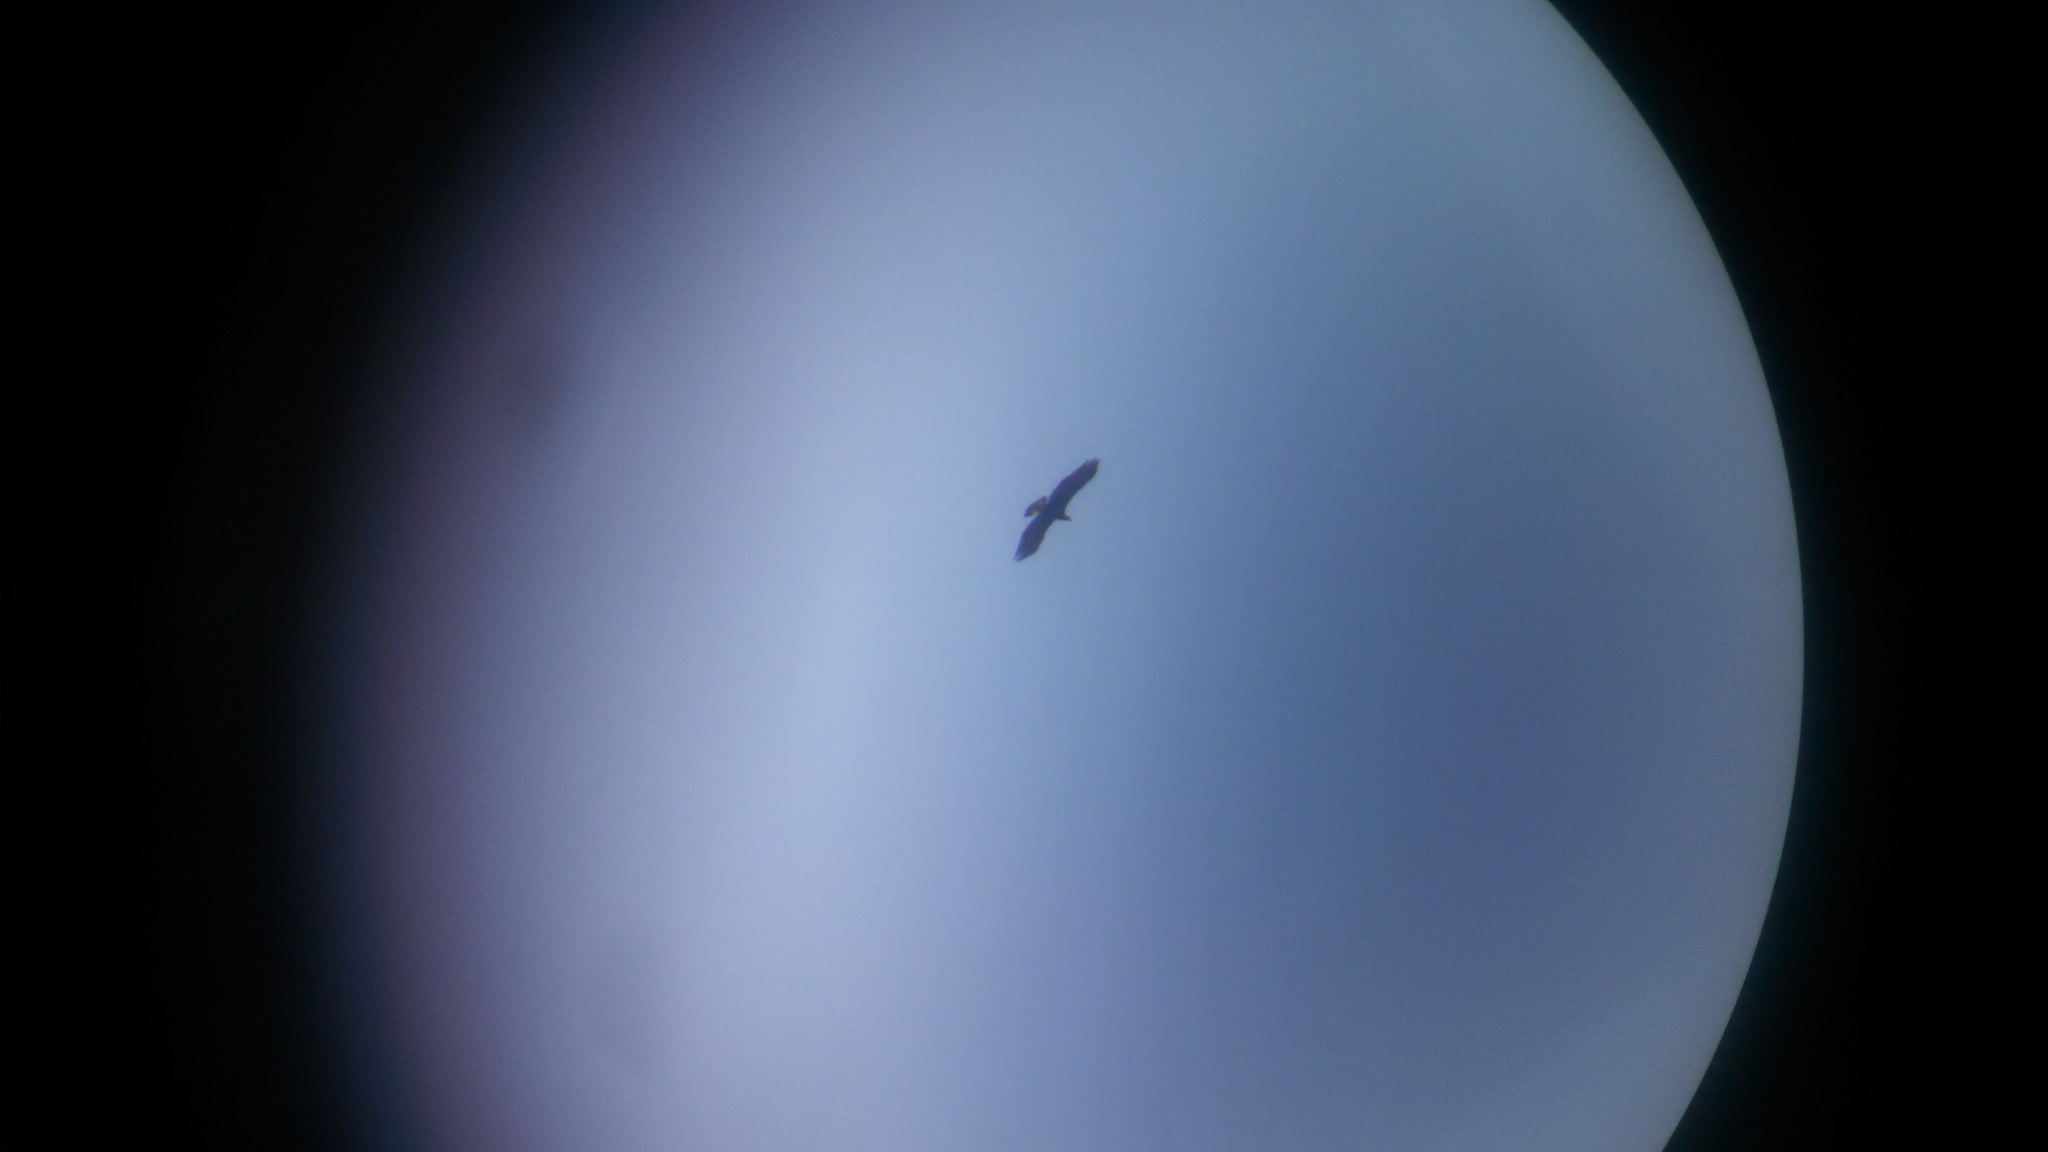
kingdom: Animalia
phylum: Chordata
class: Aves
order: Accipitriformes
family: Accipitridae
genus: Aquila
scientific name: Aquila chrysaetos
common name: Golden eagle
